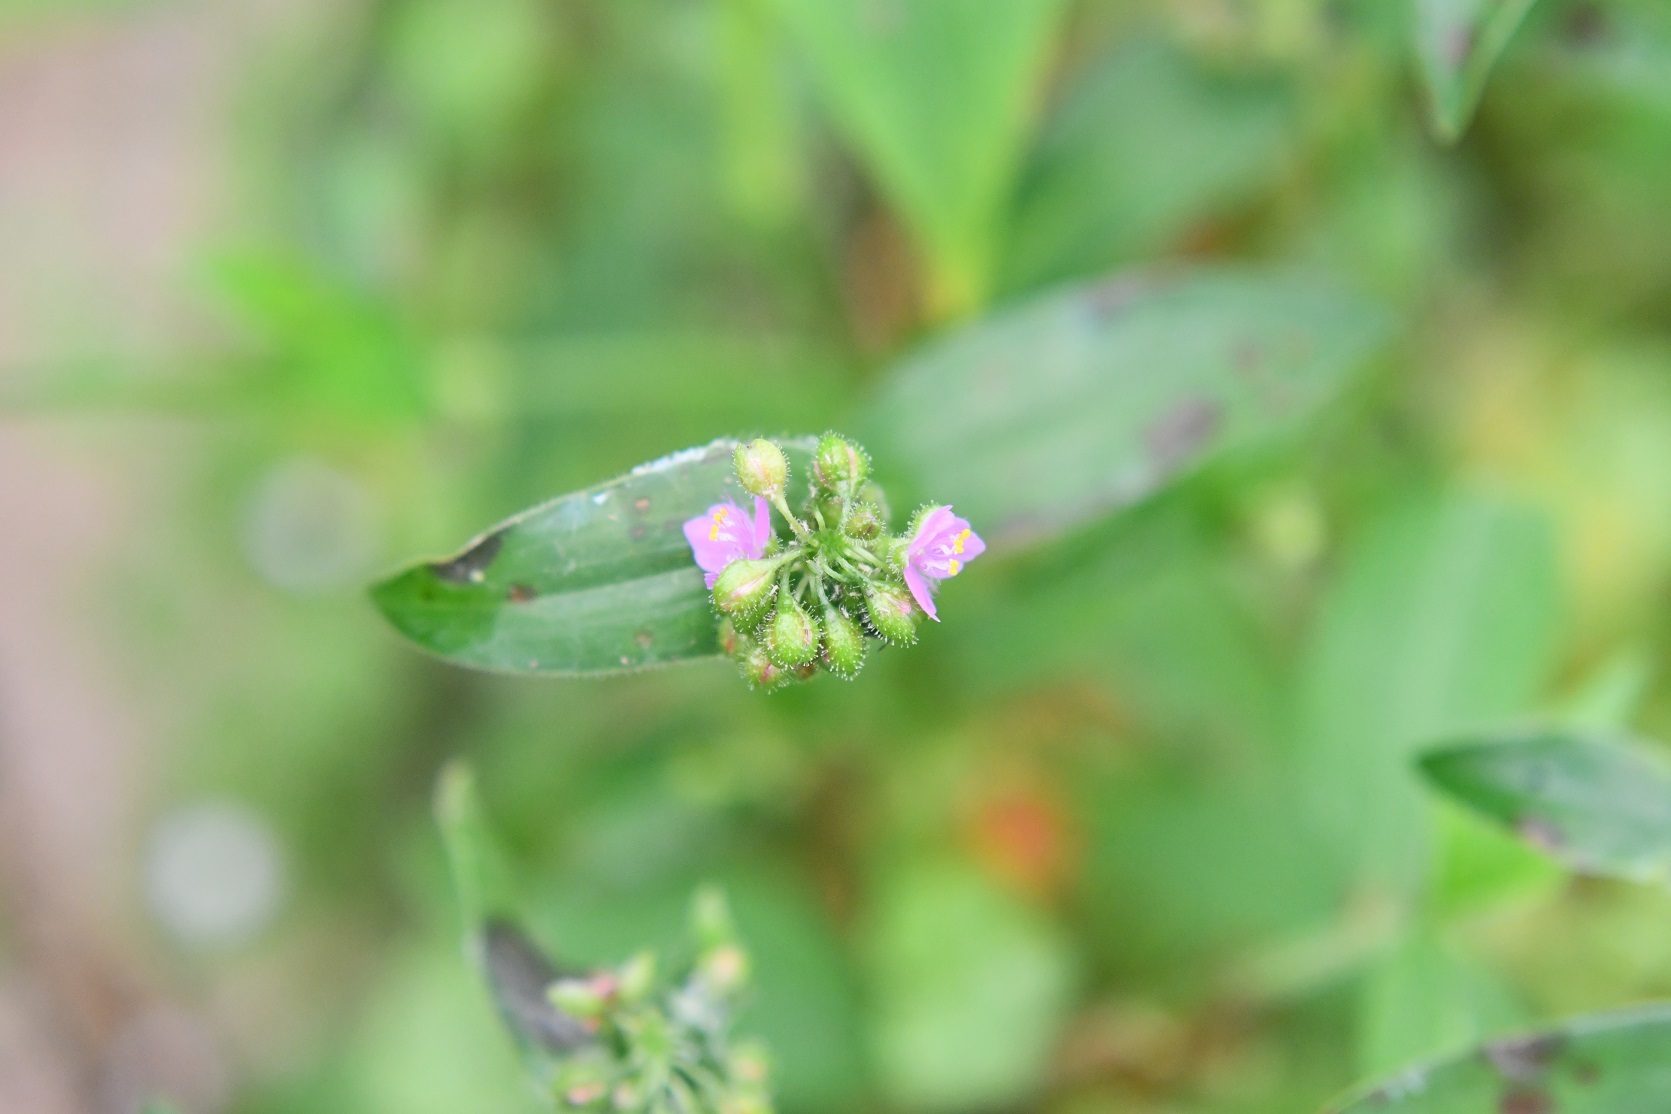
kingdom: Plantae
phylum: Tracheophyta
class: Liliopsida
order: Commelinales
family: Commelinaceae
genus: Callisia
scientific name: Callisia purpurascens
